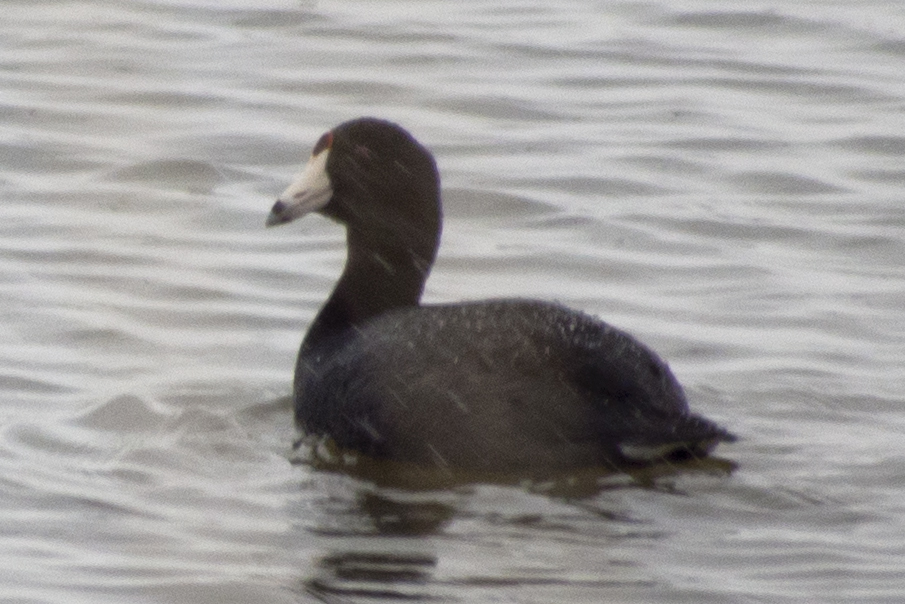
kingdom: Animalia
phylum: Chordata
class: Aves
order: Gruiformes
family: Rallidae
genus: Fulica
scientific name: Fulica americana
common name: American coot
